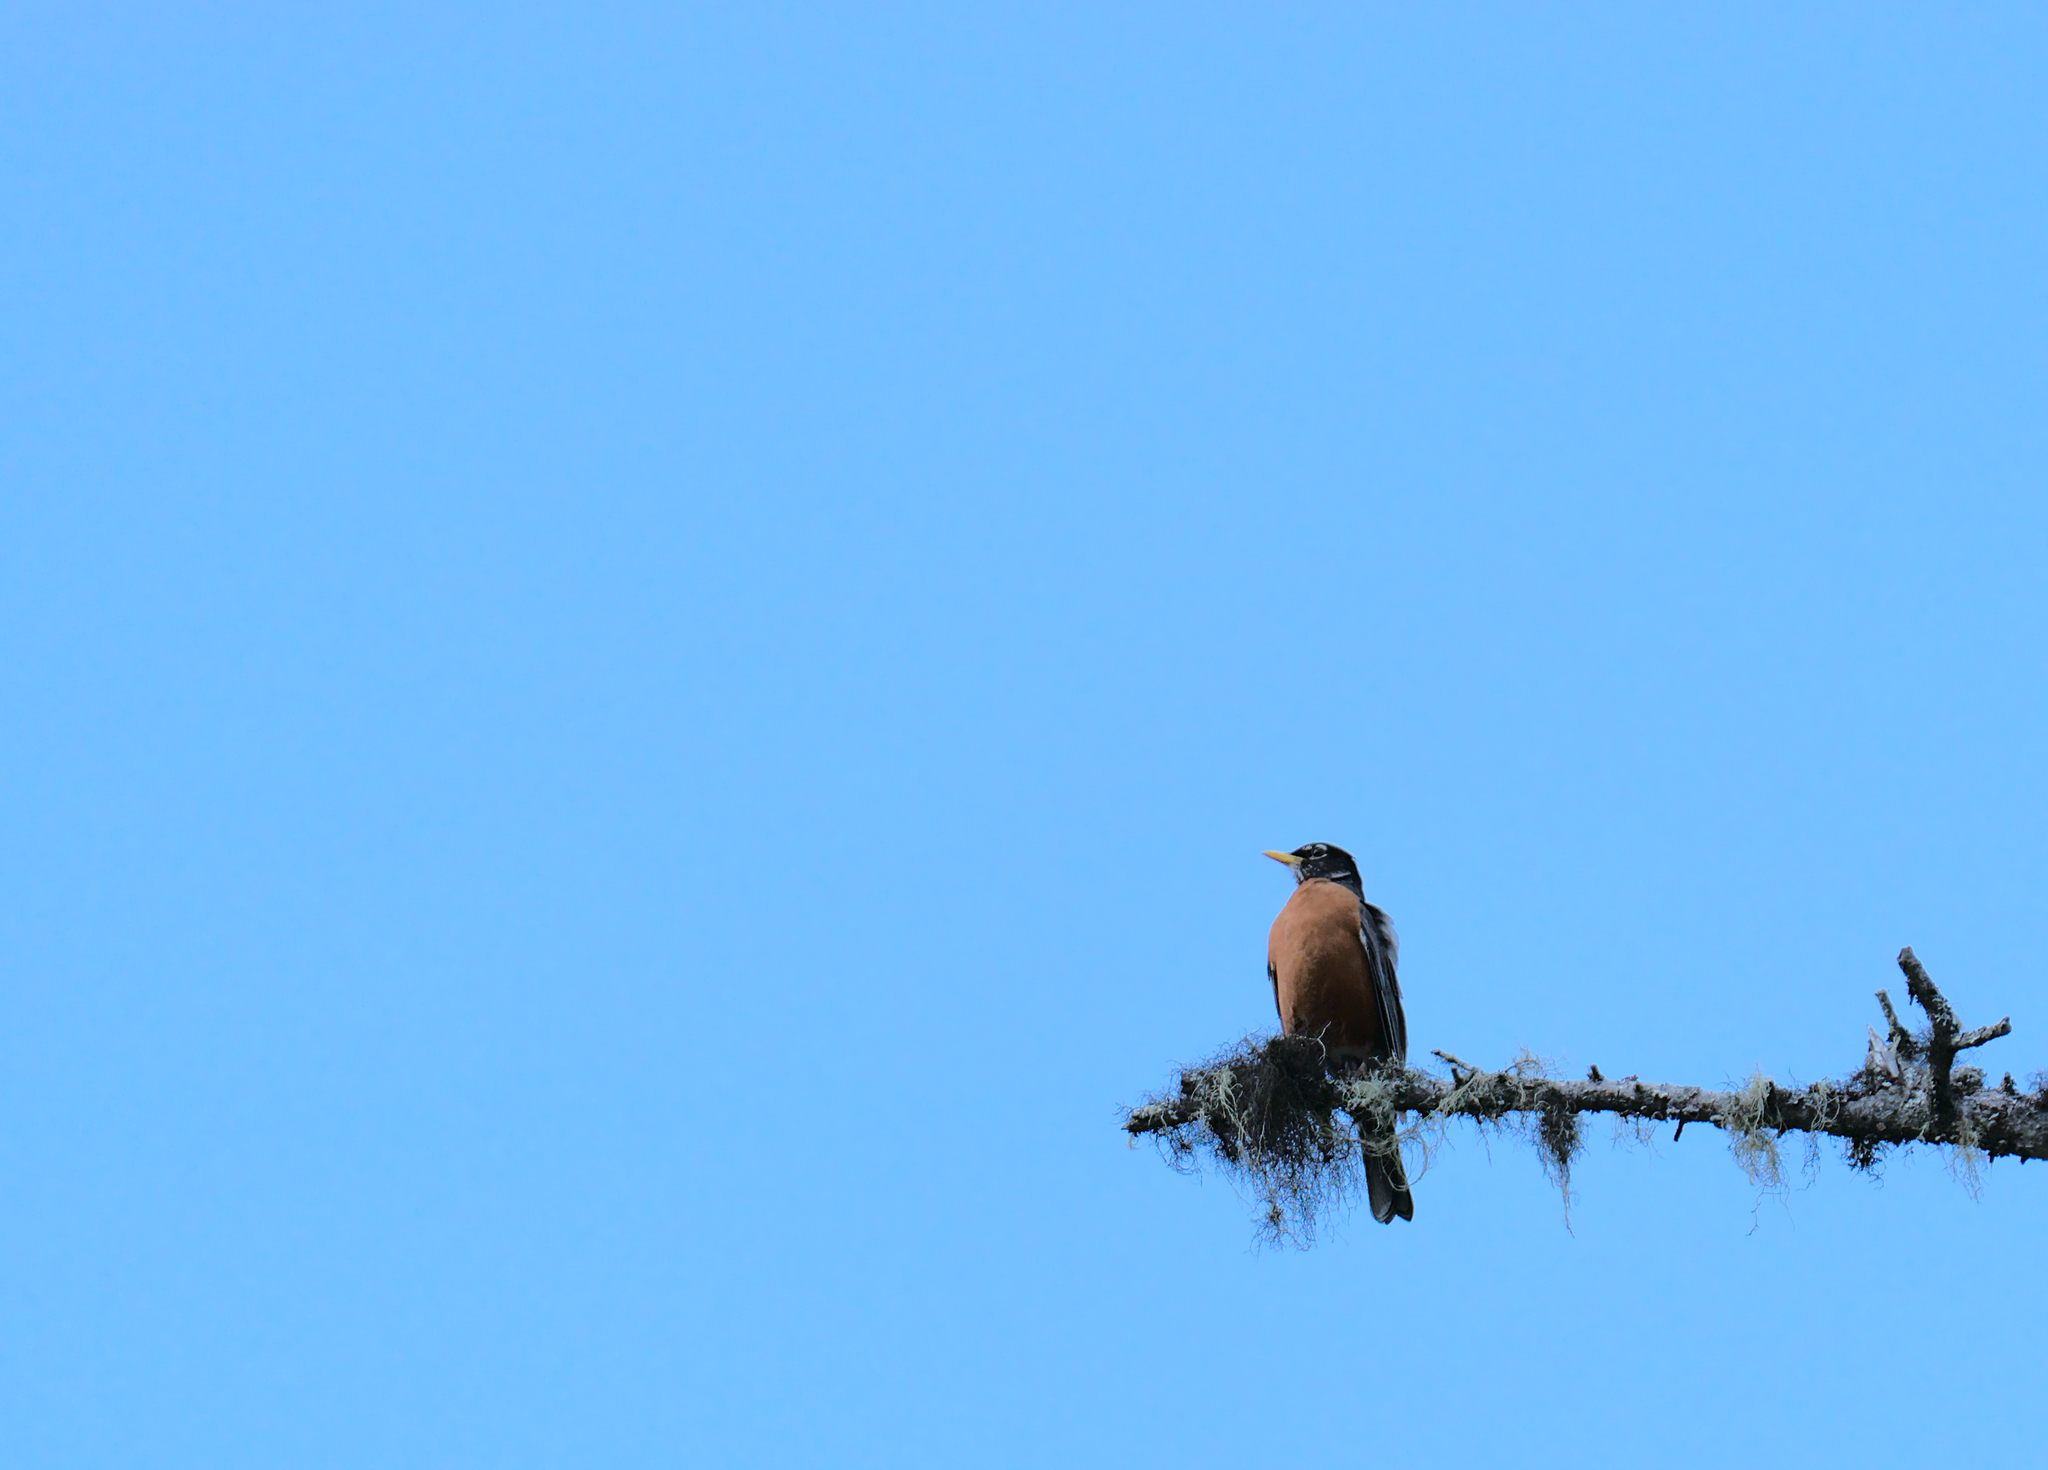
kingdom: Animalia
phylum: Chordata
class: Aves
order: Passeriformes
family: Turdidae
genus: Turdus
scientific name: Turdus migratorius
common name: American robin
